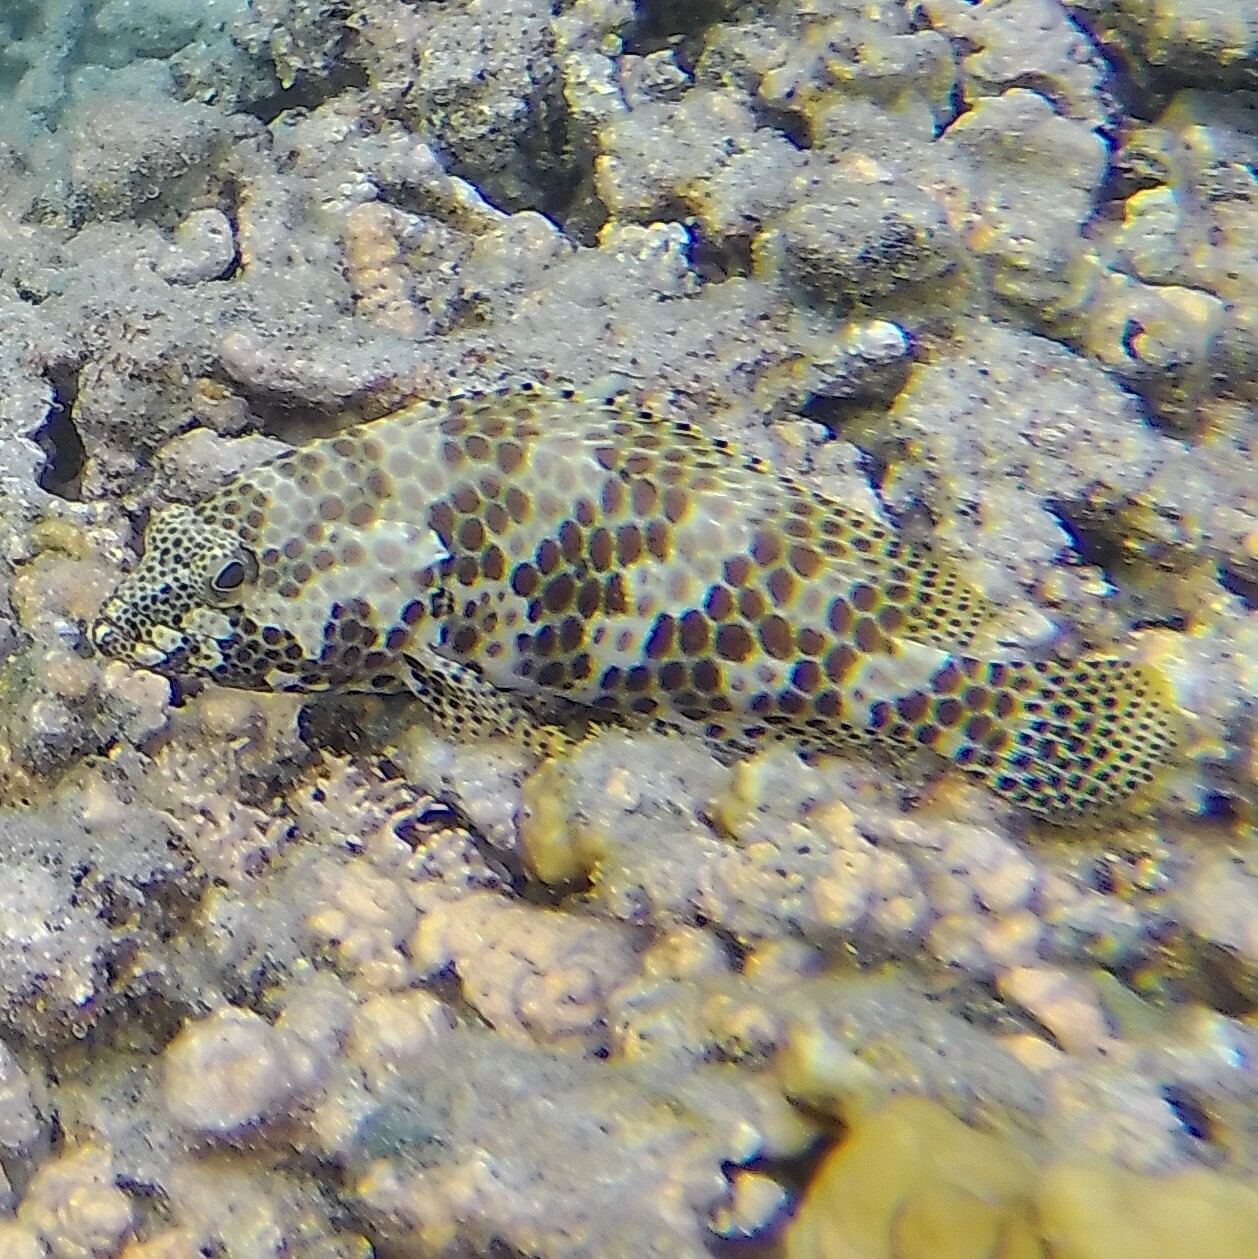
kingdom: Animalia
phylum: Chordata
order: Perciformes
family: Serranidae
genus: Epinephelus
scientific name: Epinephelus merra
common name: Honeycomb grouper
